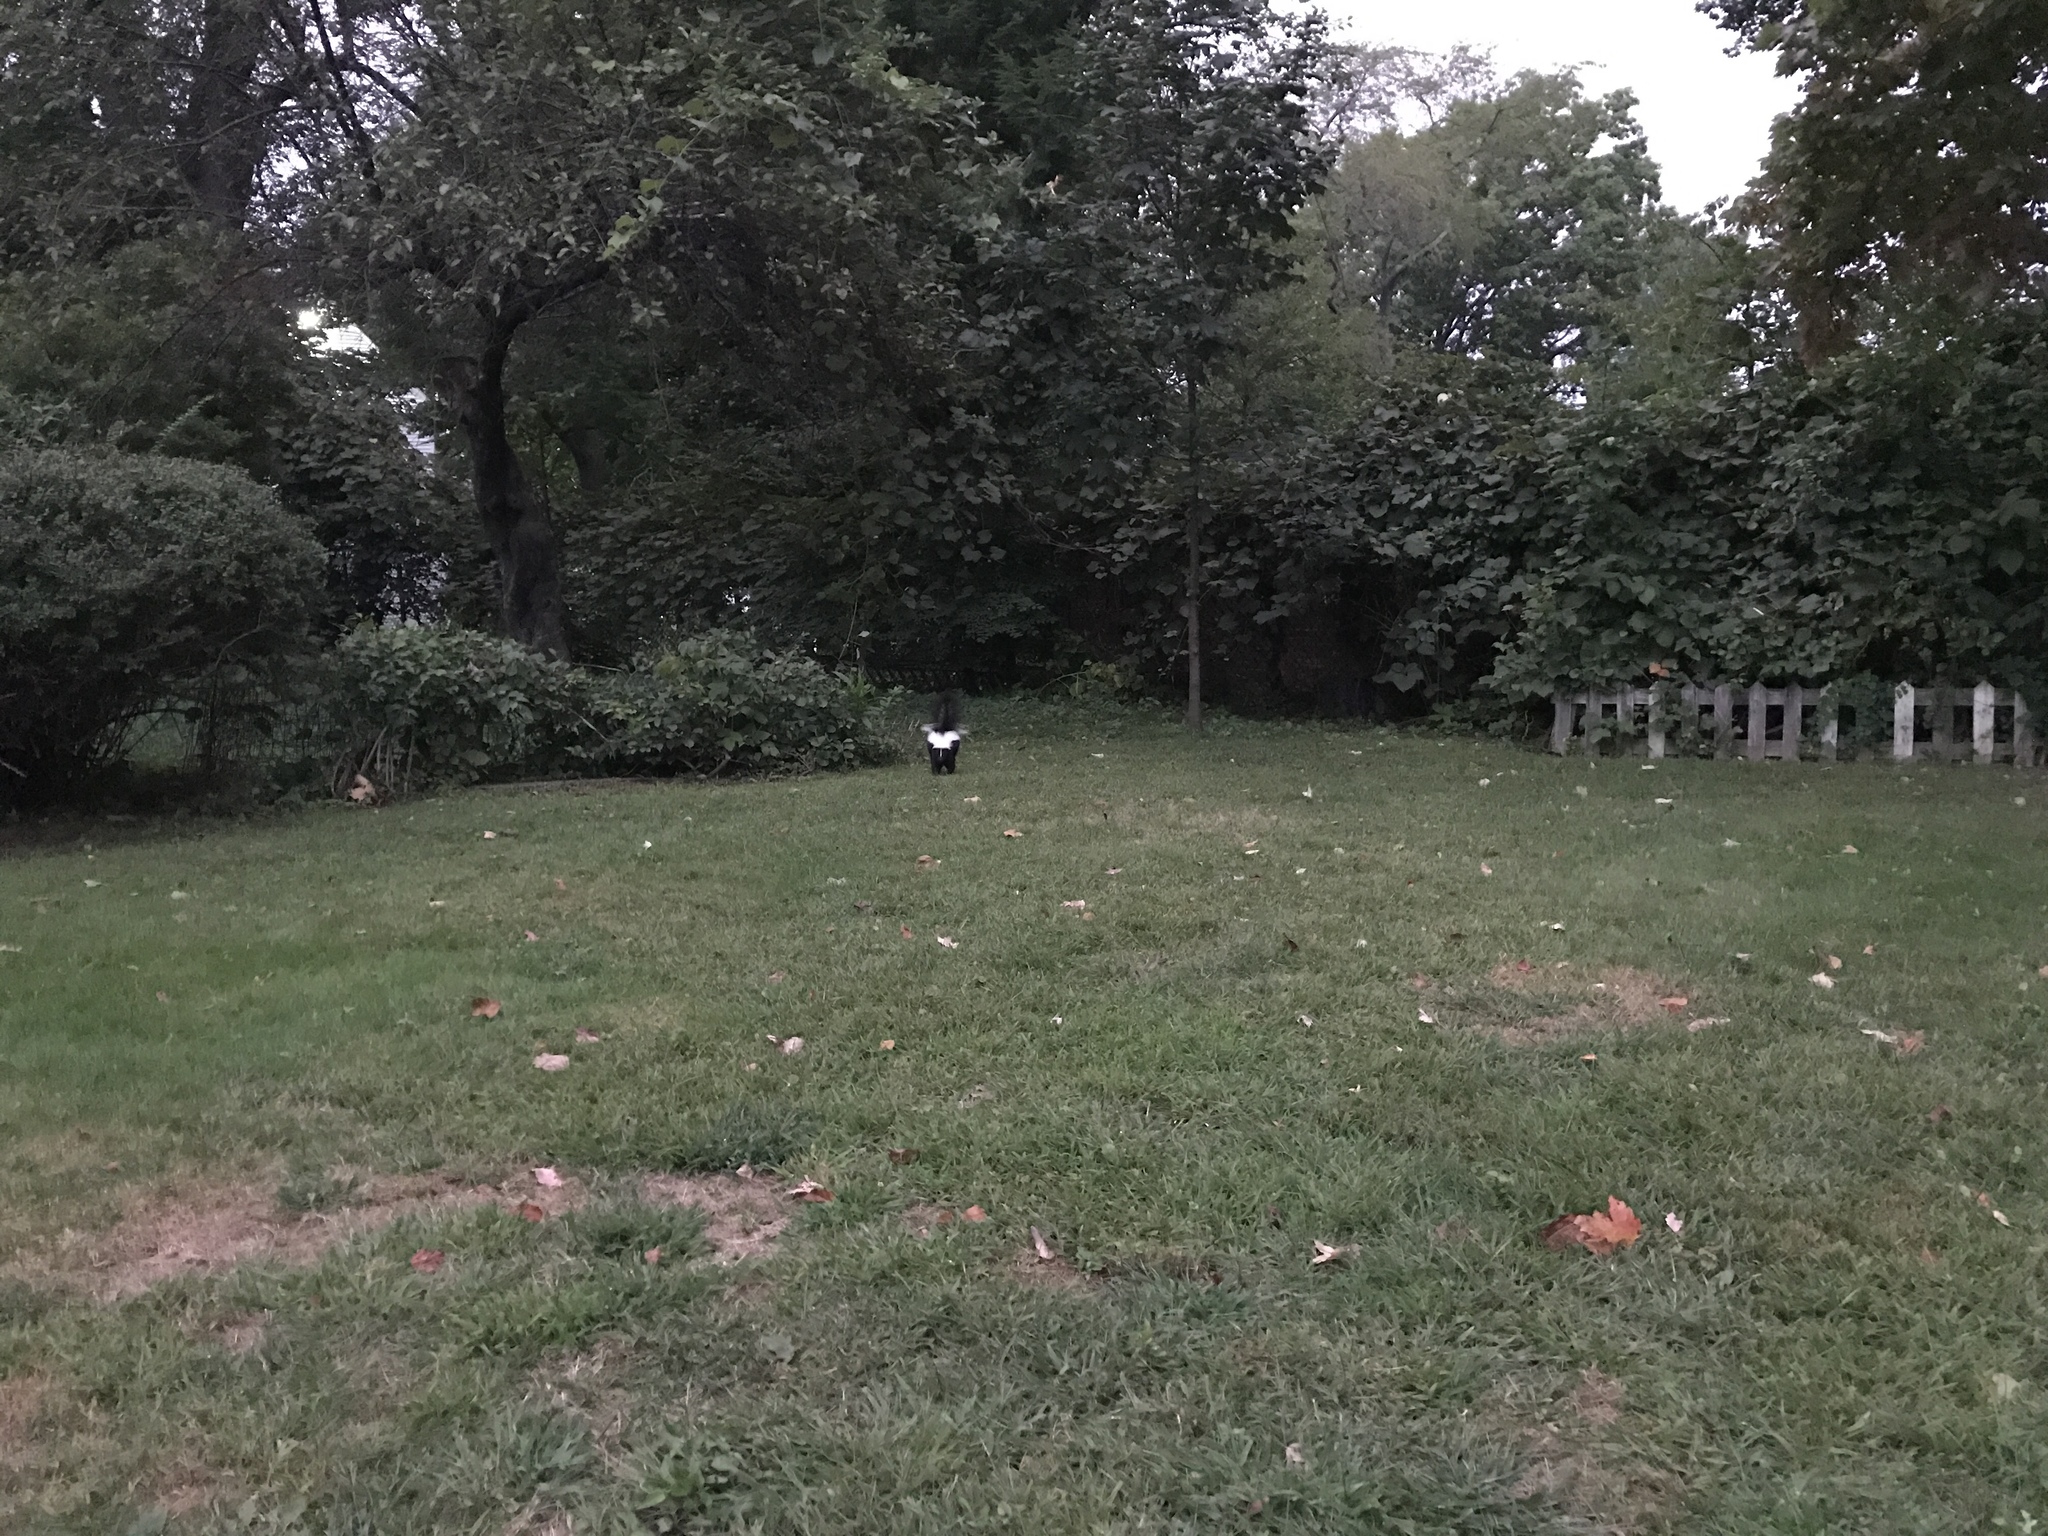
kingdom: Animalia
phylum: Chordata
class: Mammalia
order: Carnivora
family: Mephitidae
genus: Mephitis
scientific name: Mephitis mephitis
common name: Striped skunk
